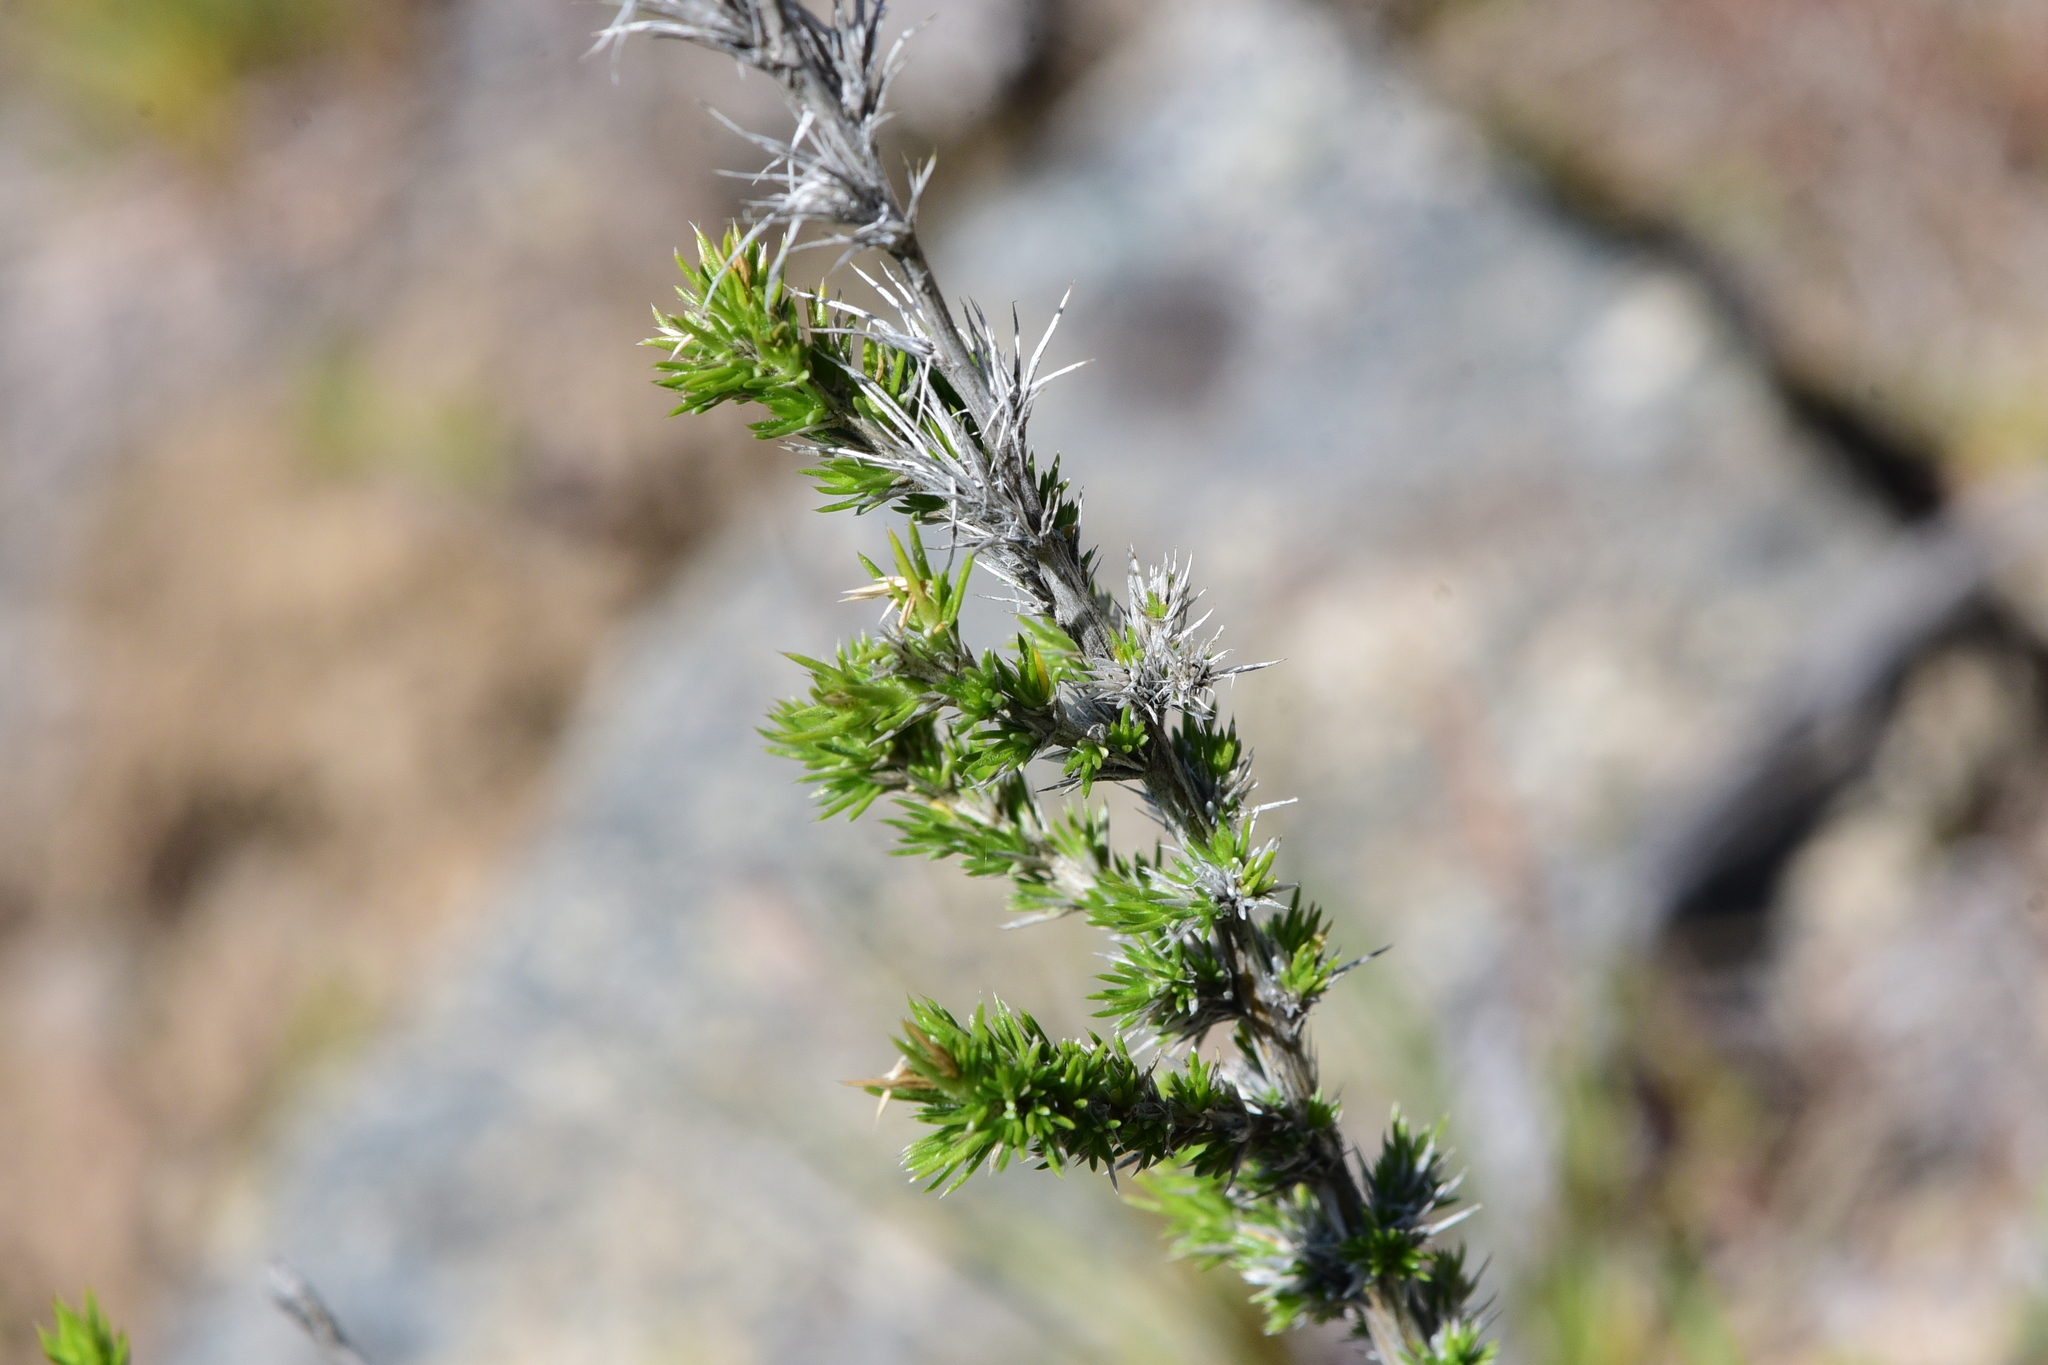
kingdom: Plantae
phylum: Tracheophyta
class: Magnoliopsida
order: Ericales
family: Polemoniaceae
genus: Linanthus
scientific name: Linanthus pungens
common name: Granite prickly phlox
